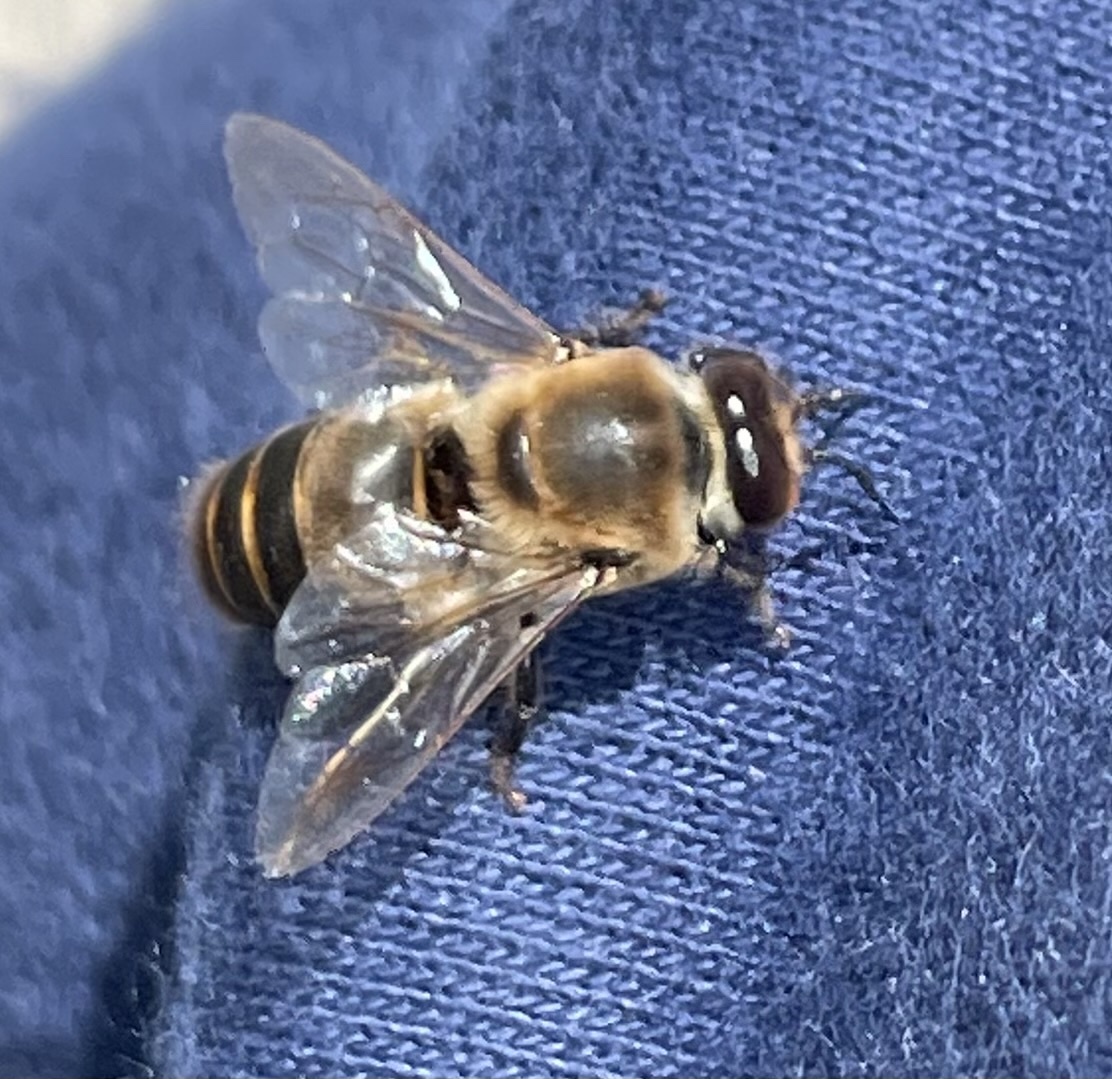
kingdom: Animalia
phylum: Arthropoda
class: Insecta
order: Hymenoptera
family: Apidae
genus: Apis
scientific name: Apis mellifera
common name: Honey bee
